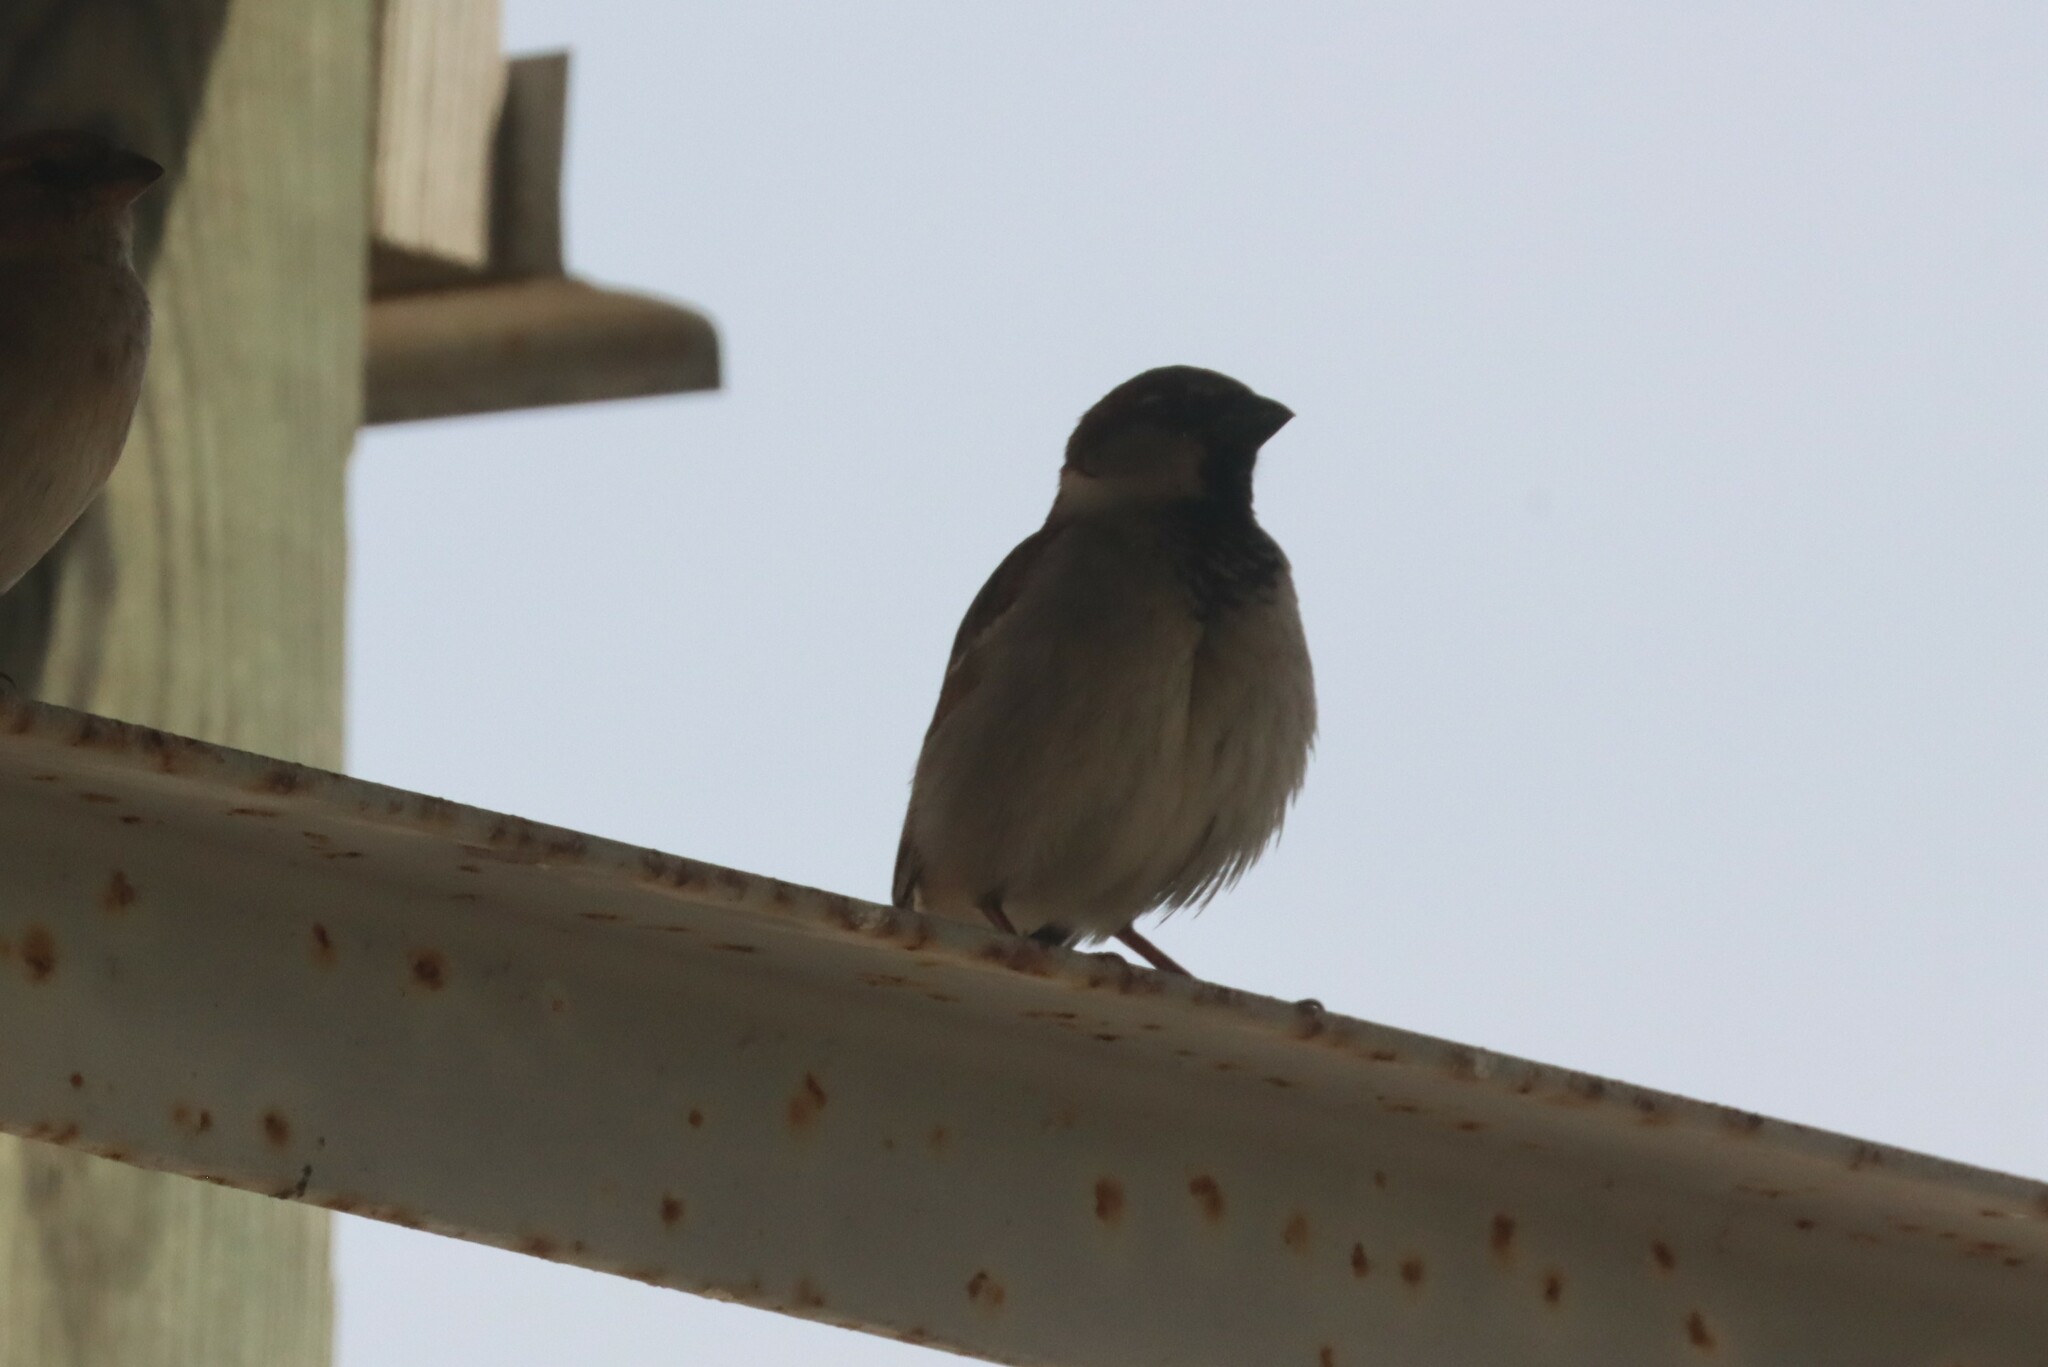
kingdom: Animalia
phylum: Chordata
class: Aves
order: Passeriformes
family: Passeridae
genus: Passer
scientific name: Passer domesticus
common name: House sparrow
